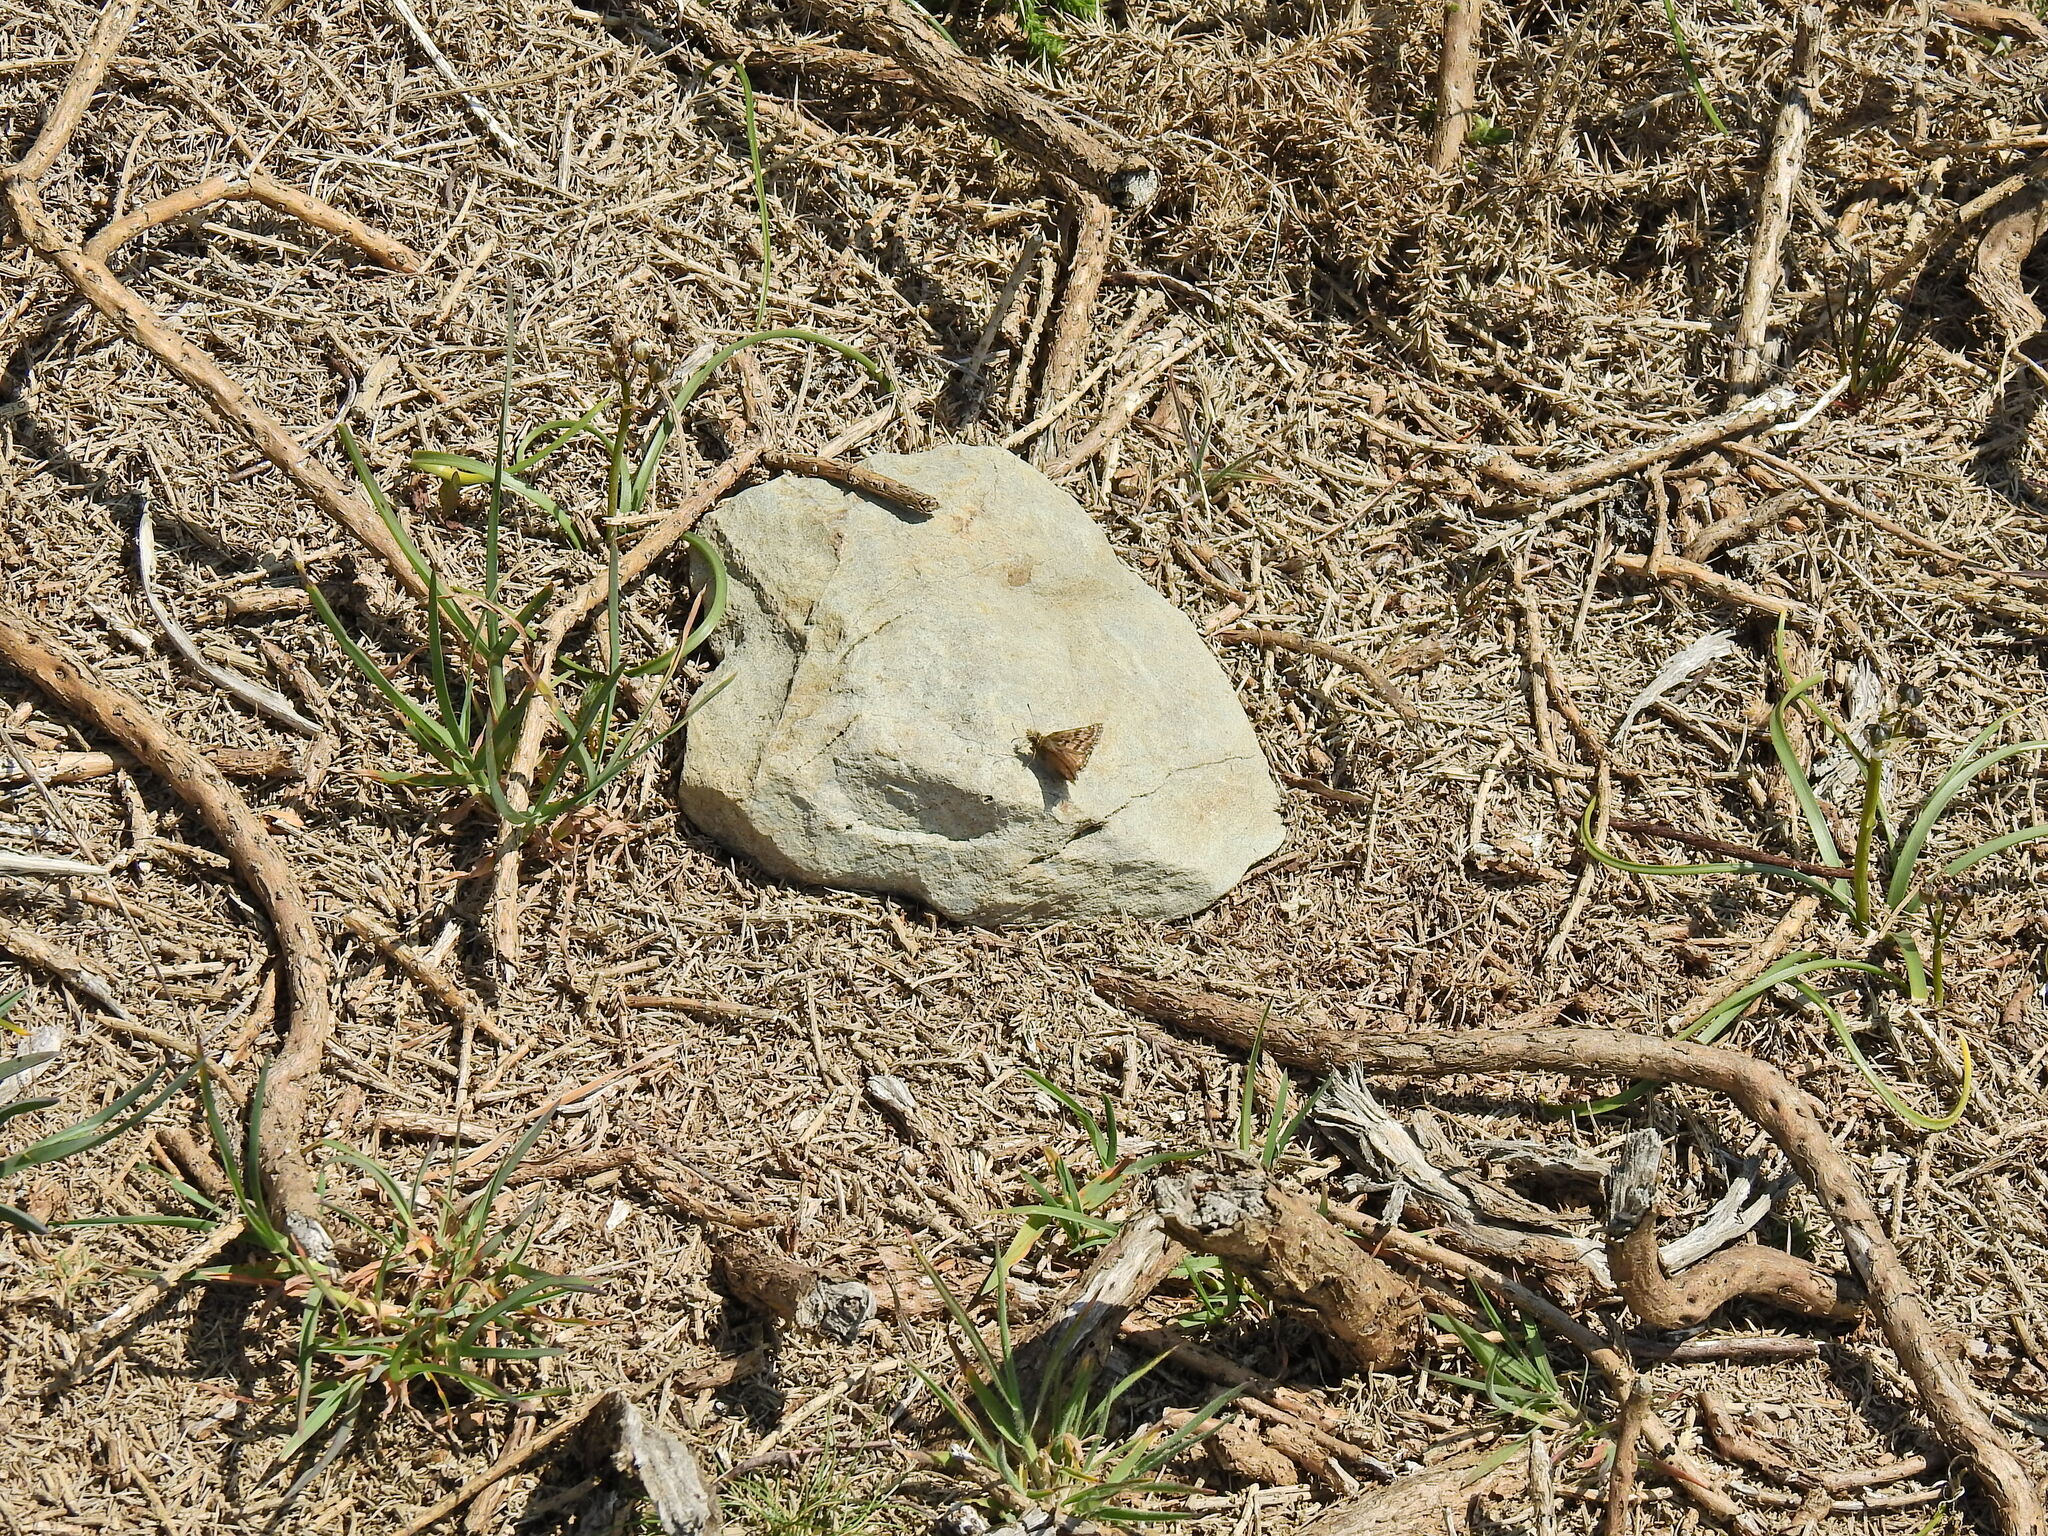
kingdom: Animalia
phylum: Arthropoda
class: Insecta
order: Lepidoptera
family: Hesperiidae
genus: Erynnis
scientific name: Erynnis tages
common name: Dingy skipper
